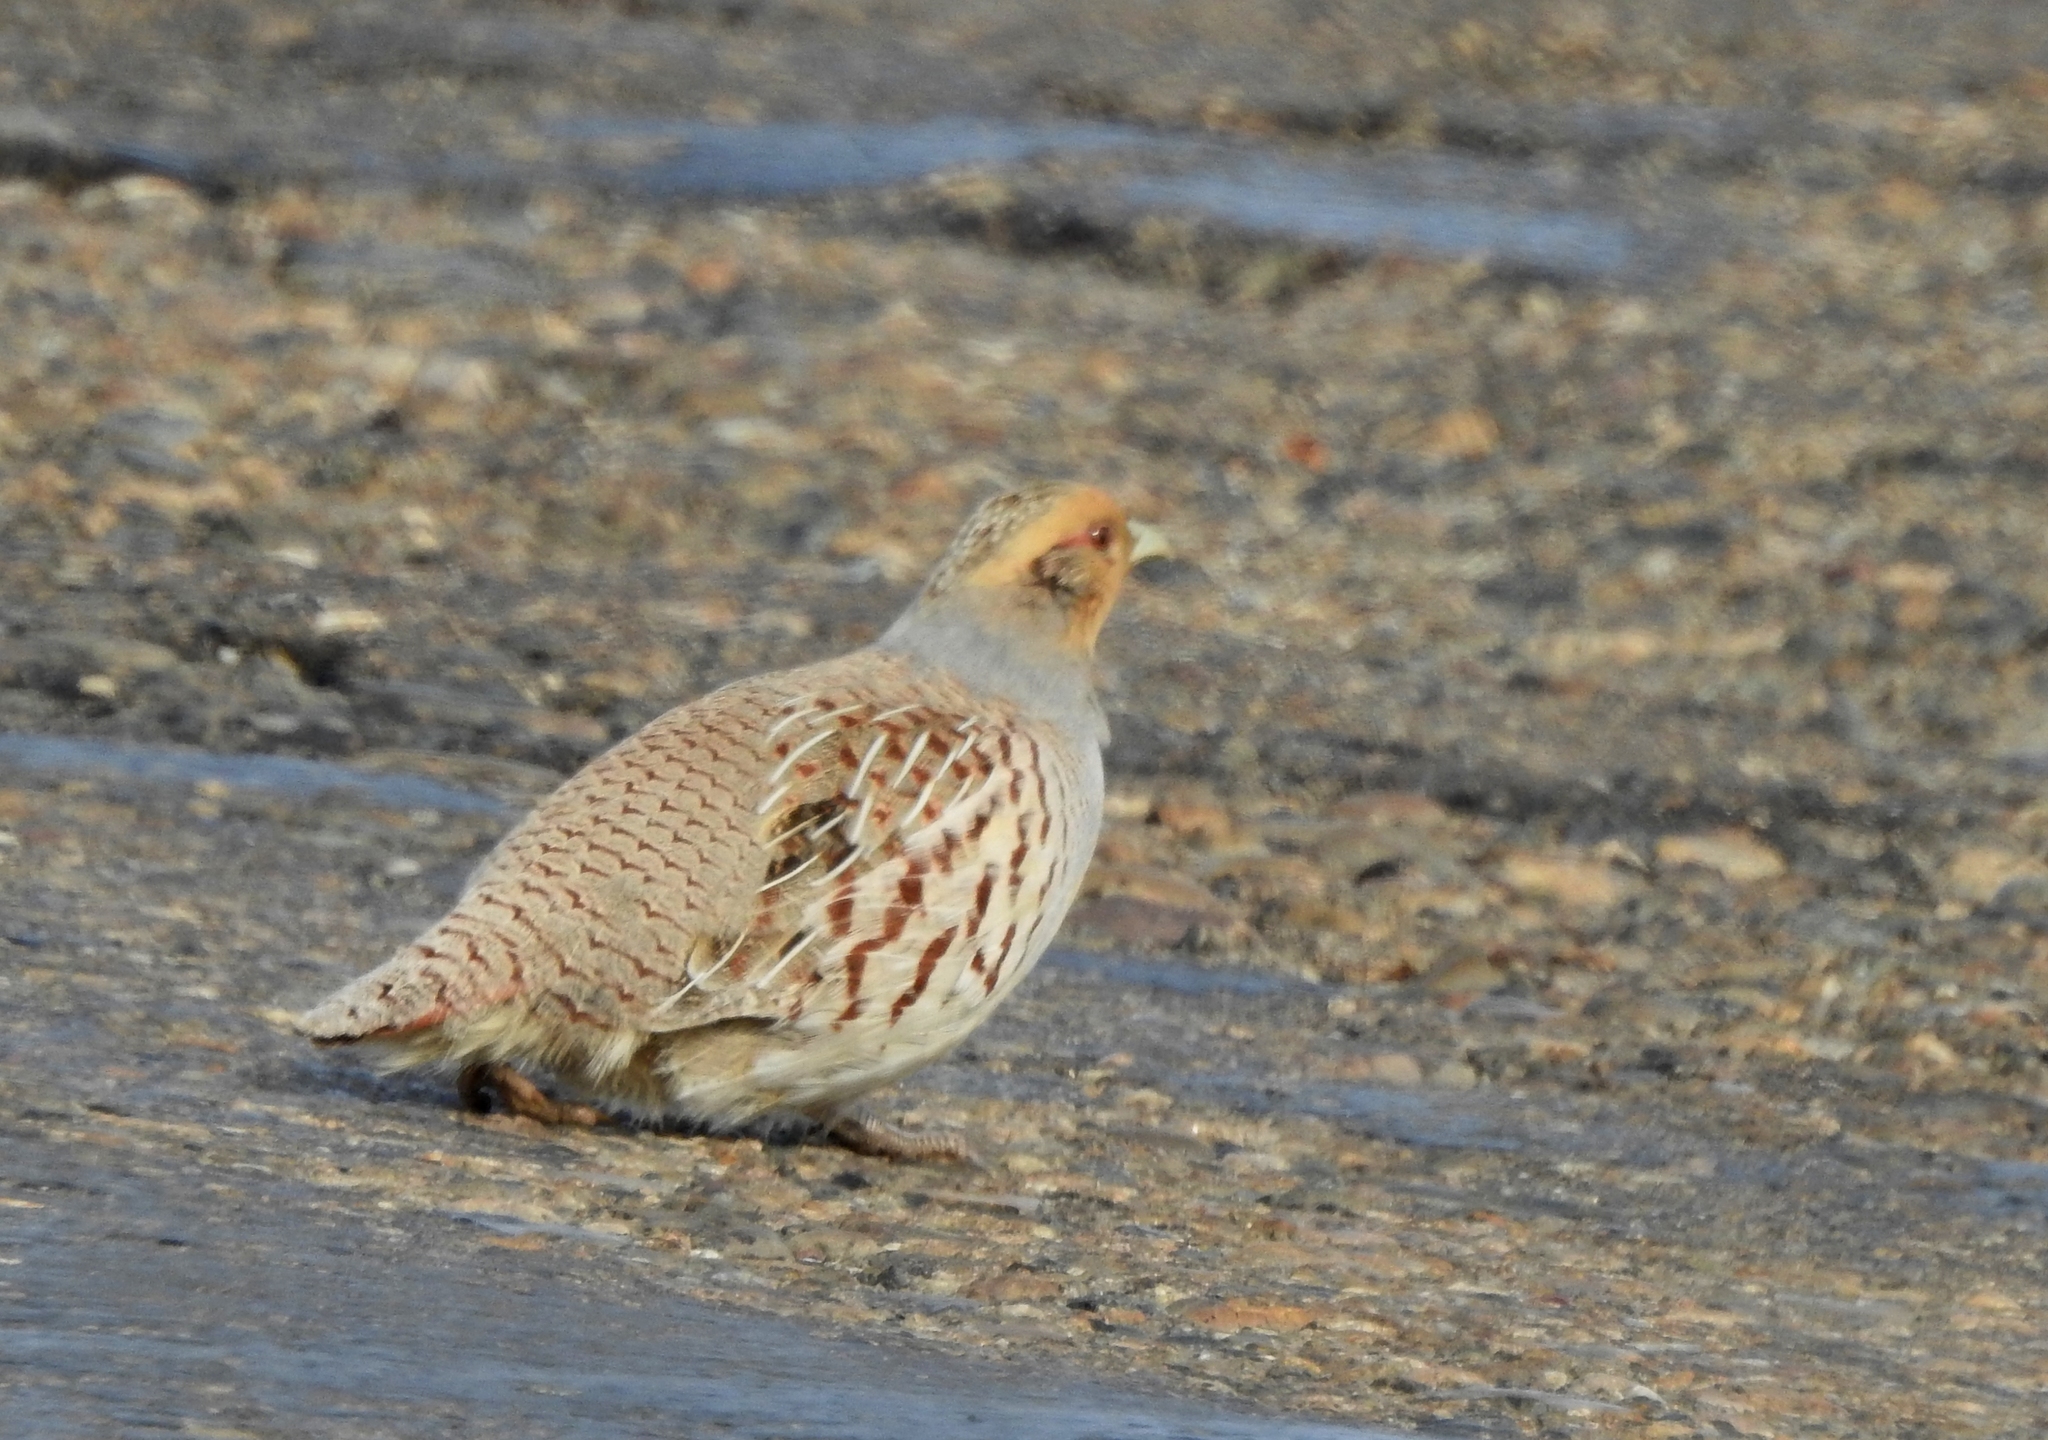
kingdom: Animalia
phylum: Chordata
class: Aves
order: Galliformes
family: Phasianidae
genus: Perdix
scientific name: Perdix dauurica
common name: Daurian partridge
